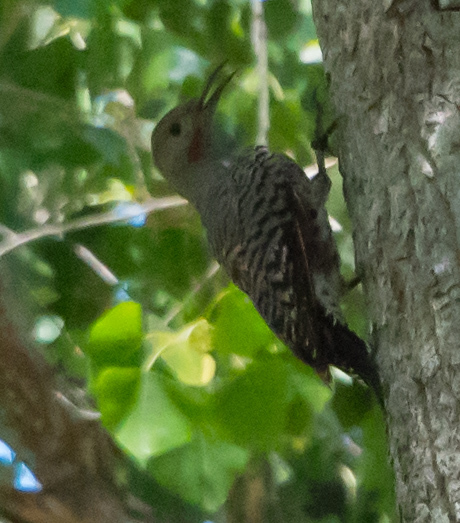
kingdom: Animalia
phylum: Chordata
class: Aves
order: Piciformes
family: Picidae
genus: Colaptes
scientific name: Colaptes chrysoides
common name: Gilded flicker
